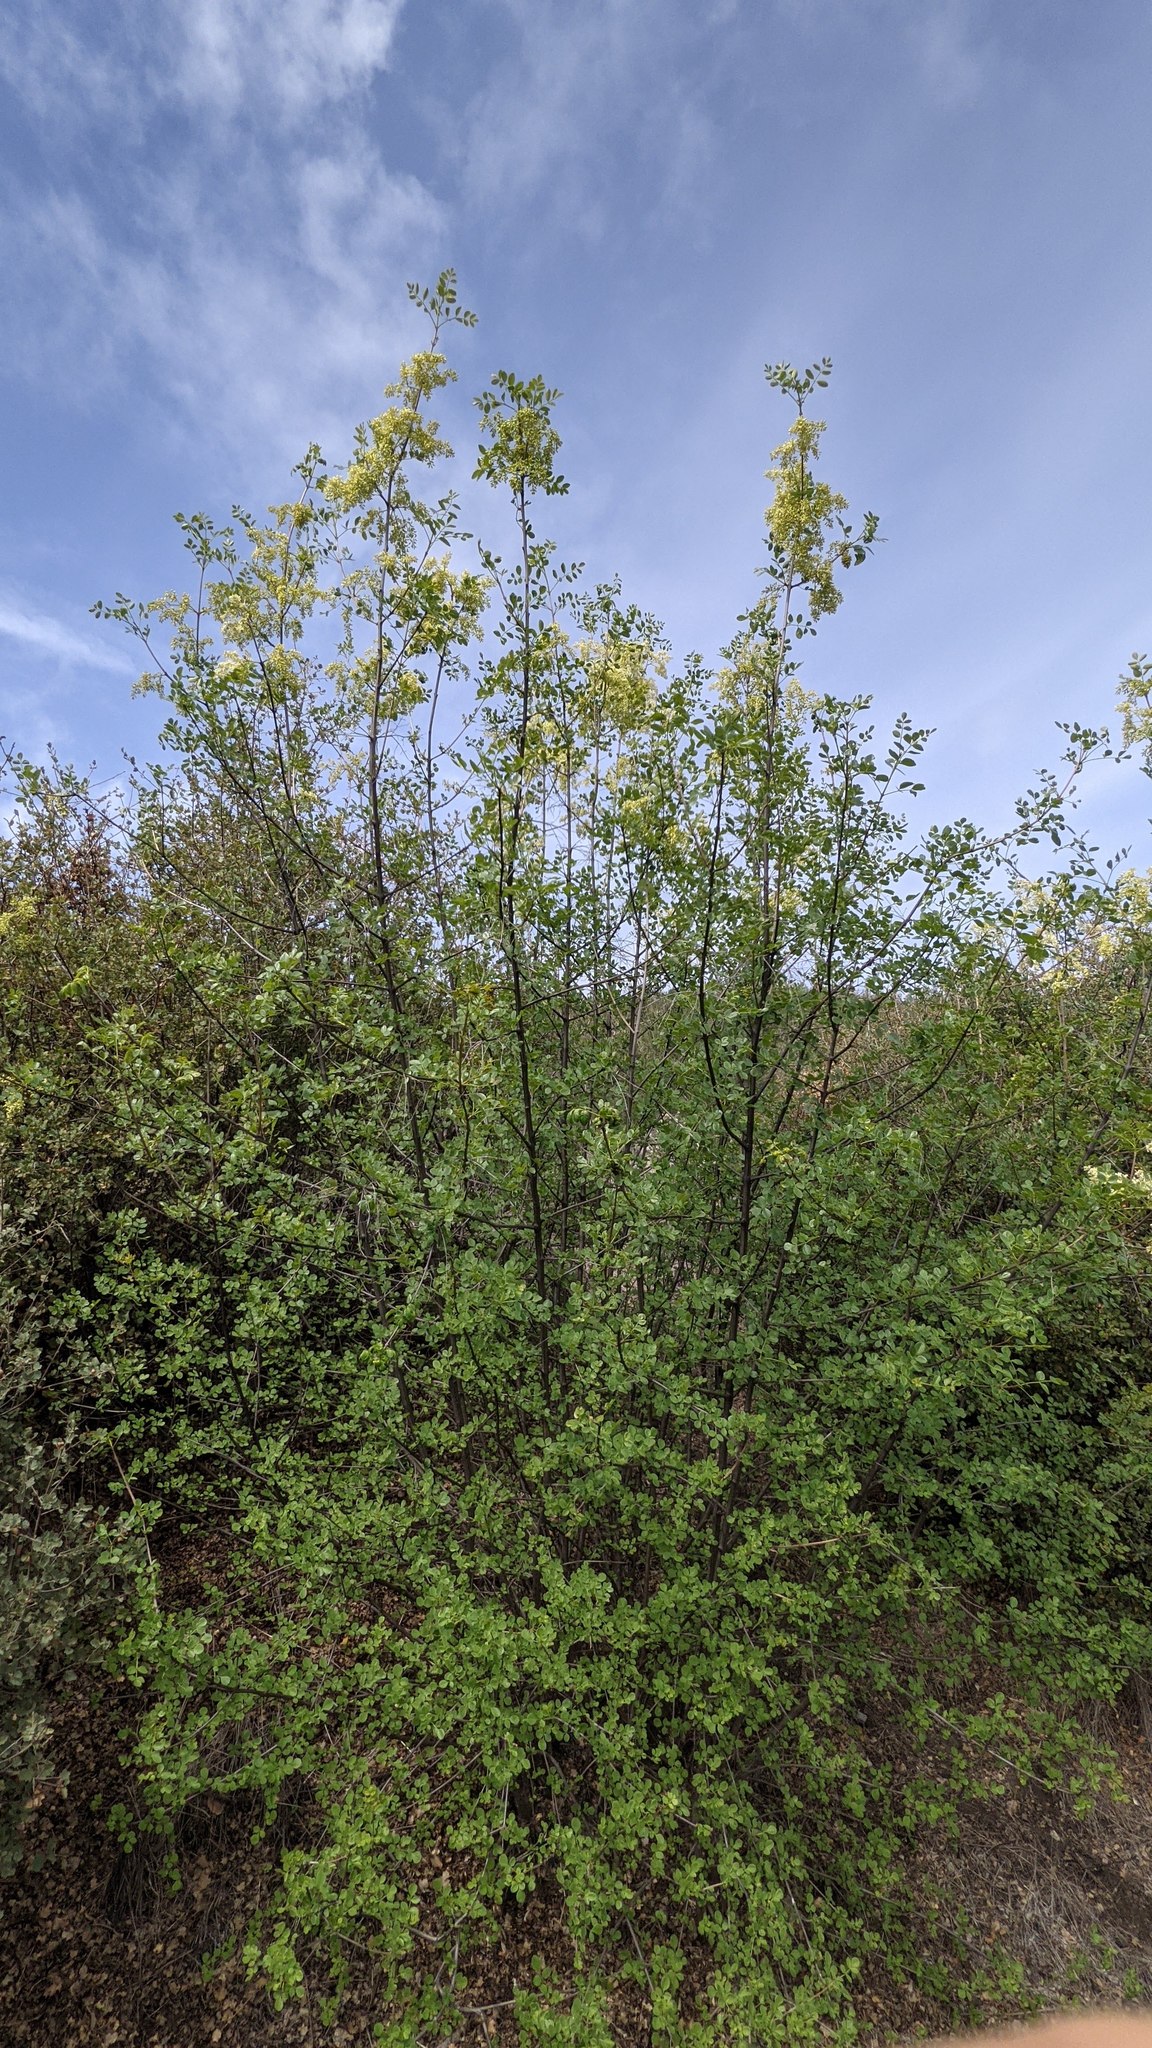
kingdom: Plantae
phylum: Tracheophyta
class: Magnoliopsida
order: Lamiales
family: Oleaceae
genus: Fraxinus
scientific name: Fraxinus dipetala
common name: California ash
